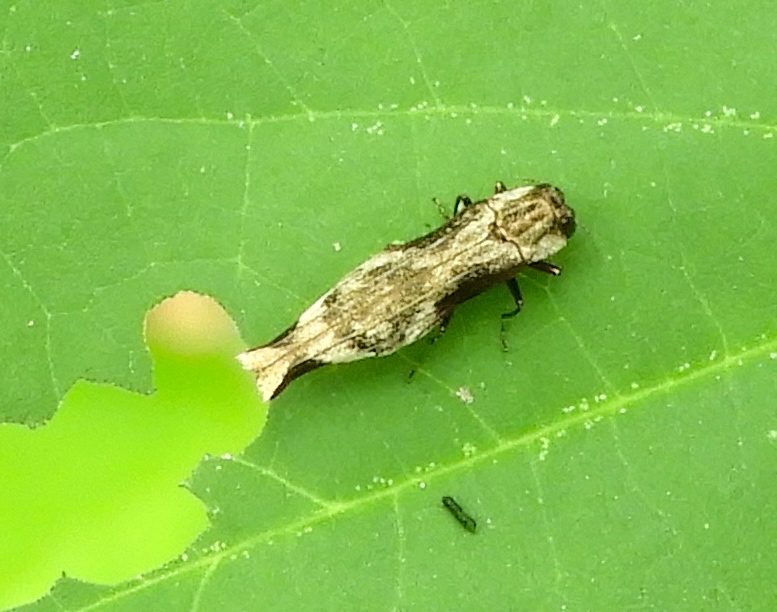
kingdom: Animalia
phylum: Arthropoda
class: Insecta
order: Coleoptera
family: Buprestidae
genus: Agrilus
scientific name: Agrilus langei
